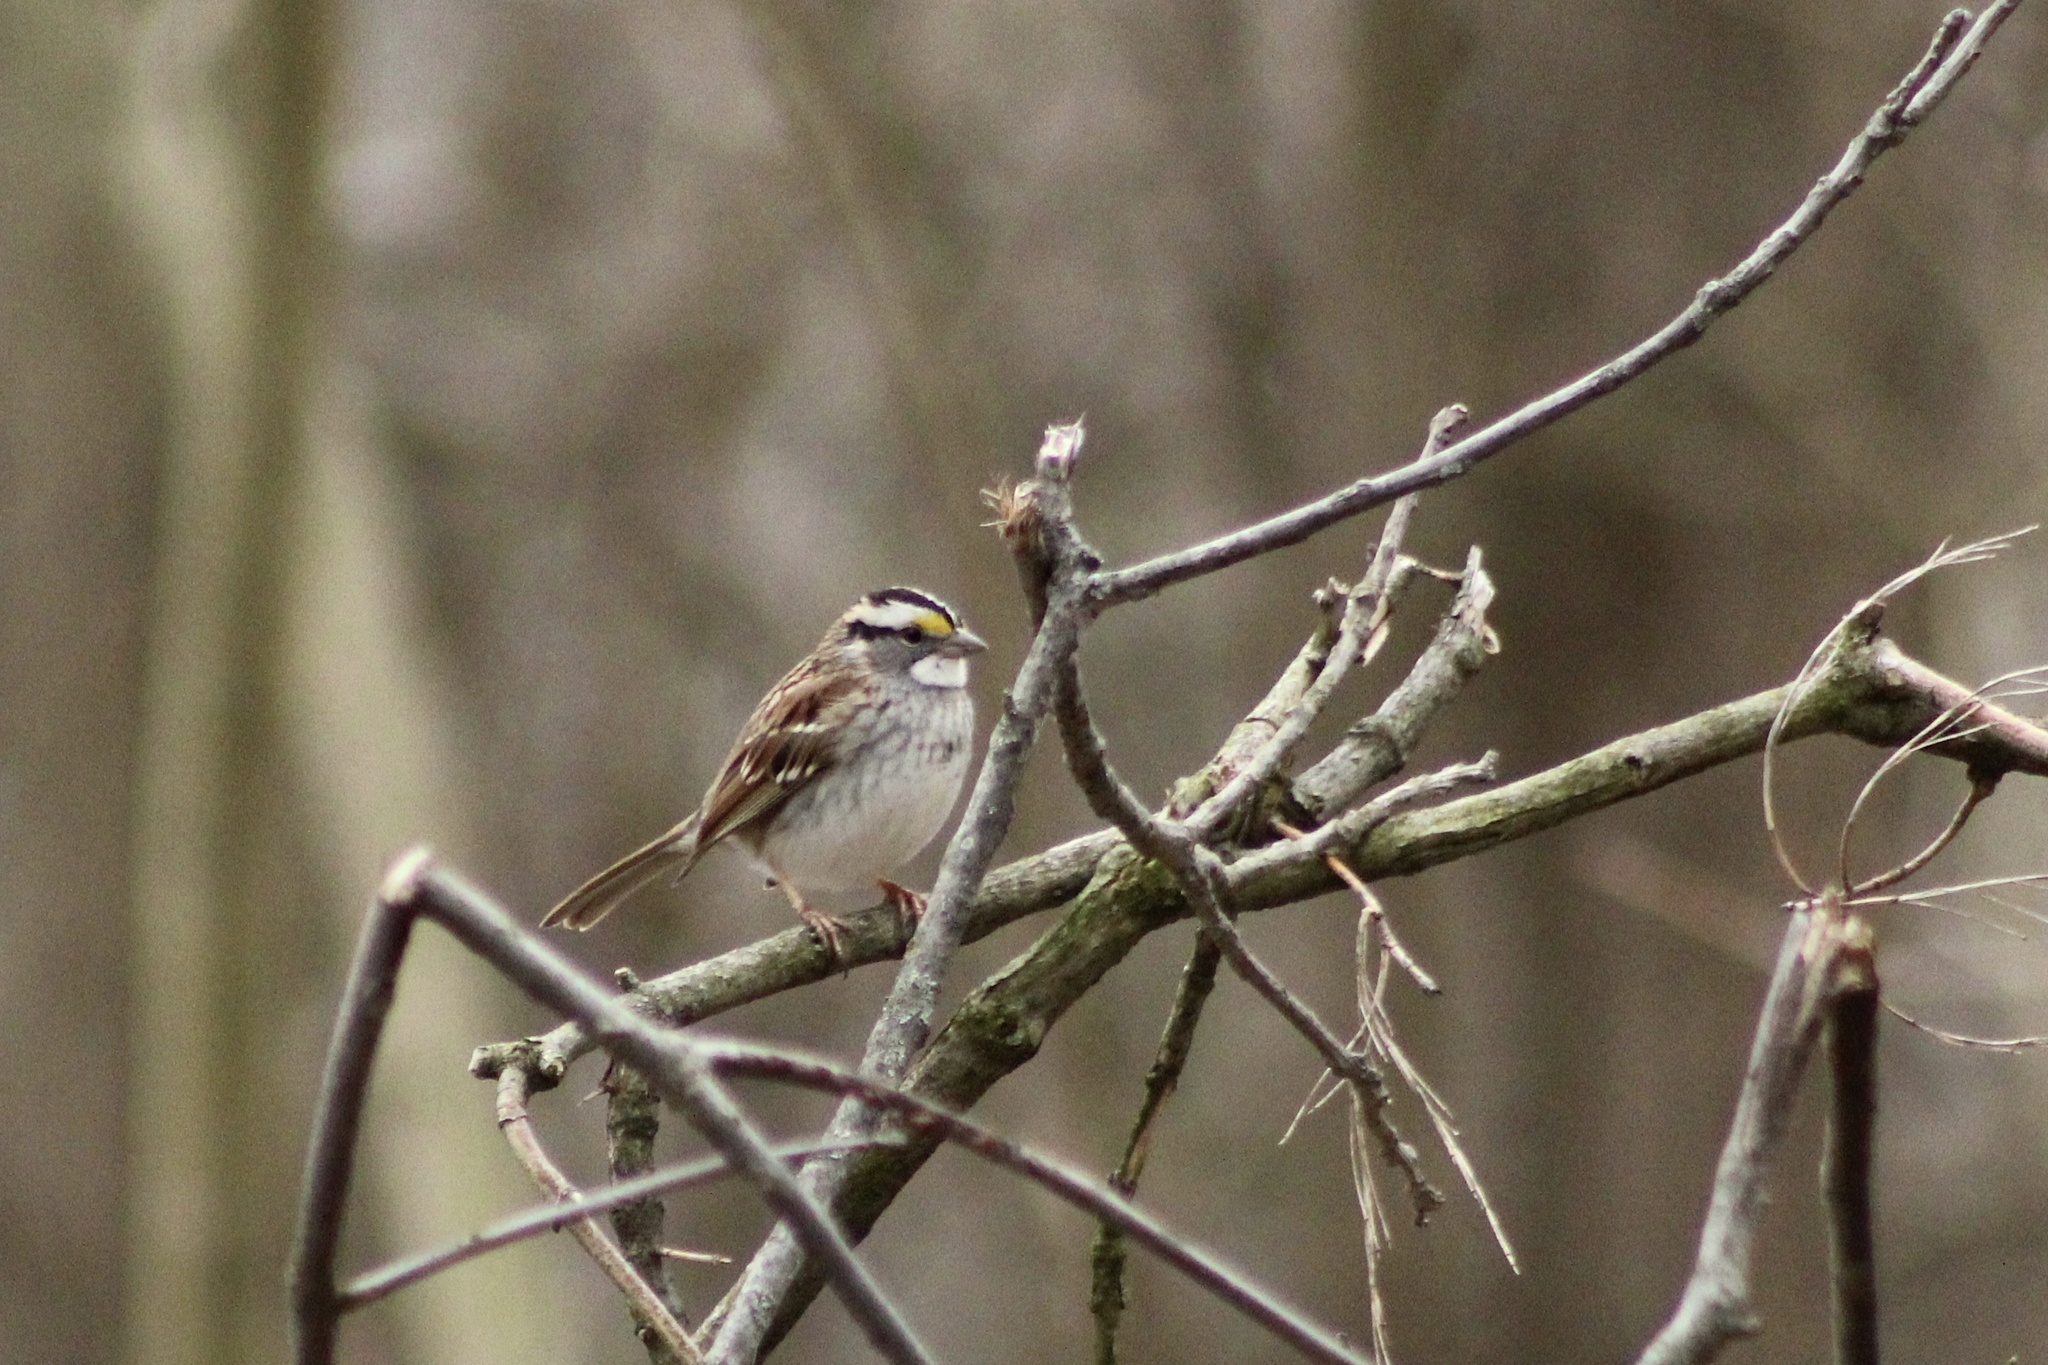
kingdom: Animalia
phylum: Chordata
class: Aves
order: Passeriformes
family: Passerellidae
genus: Zonotrichia
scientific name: Zonotrichia albicollis
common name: White-throated sparrow
